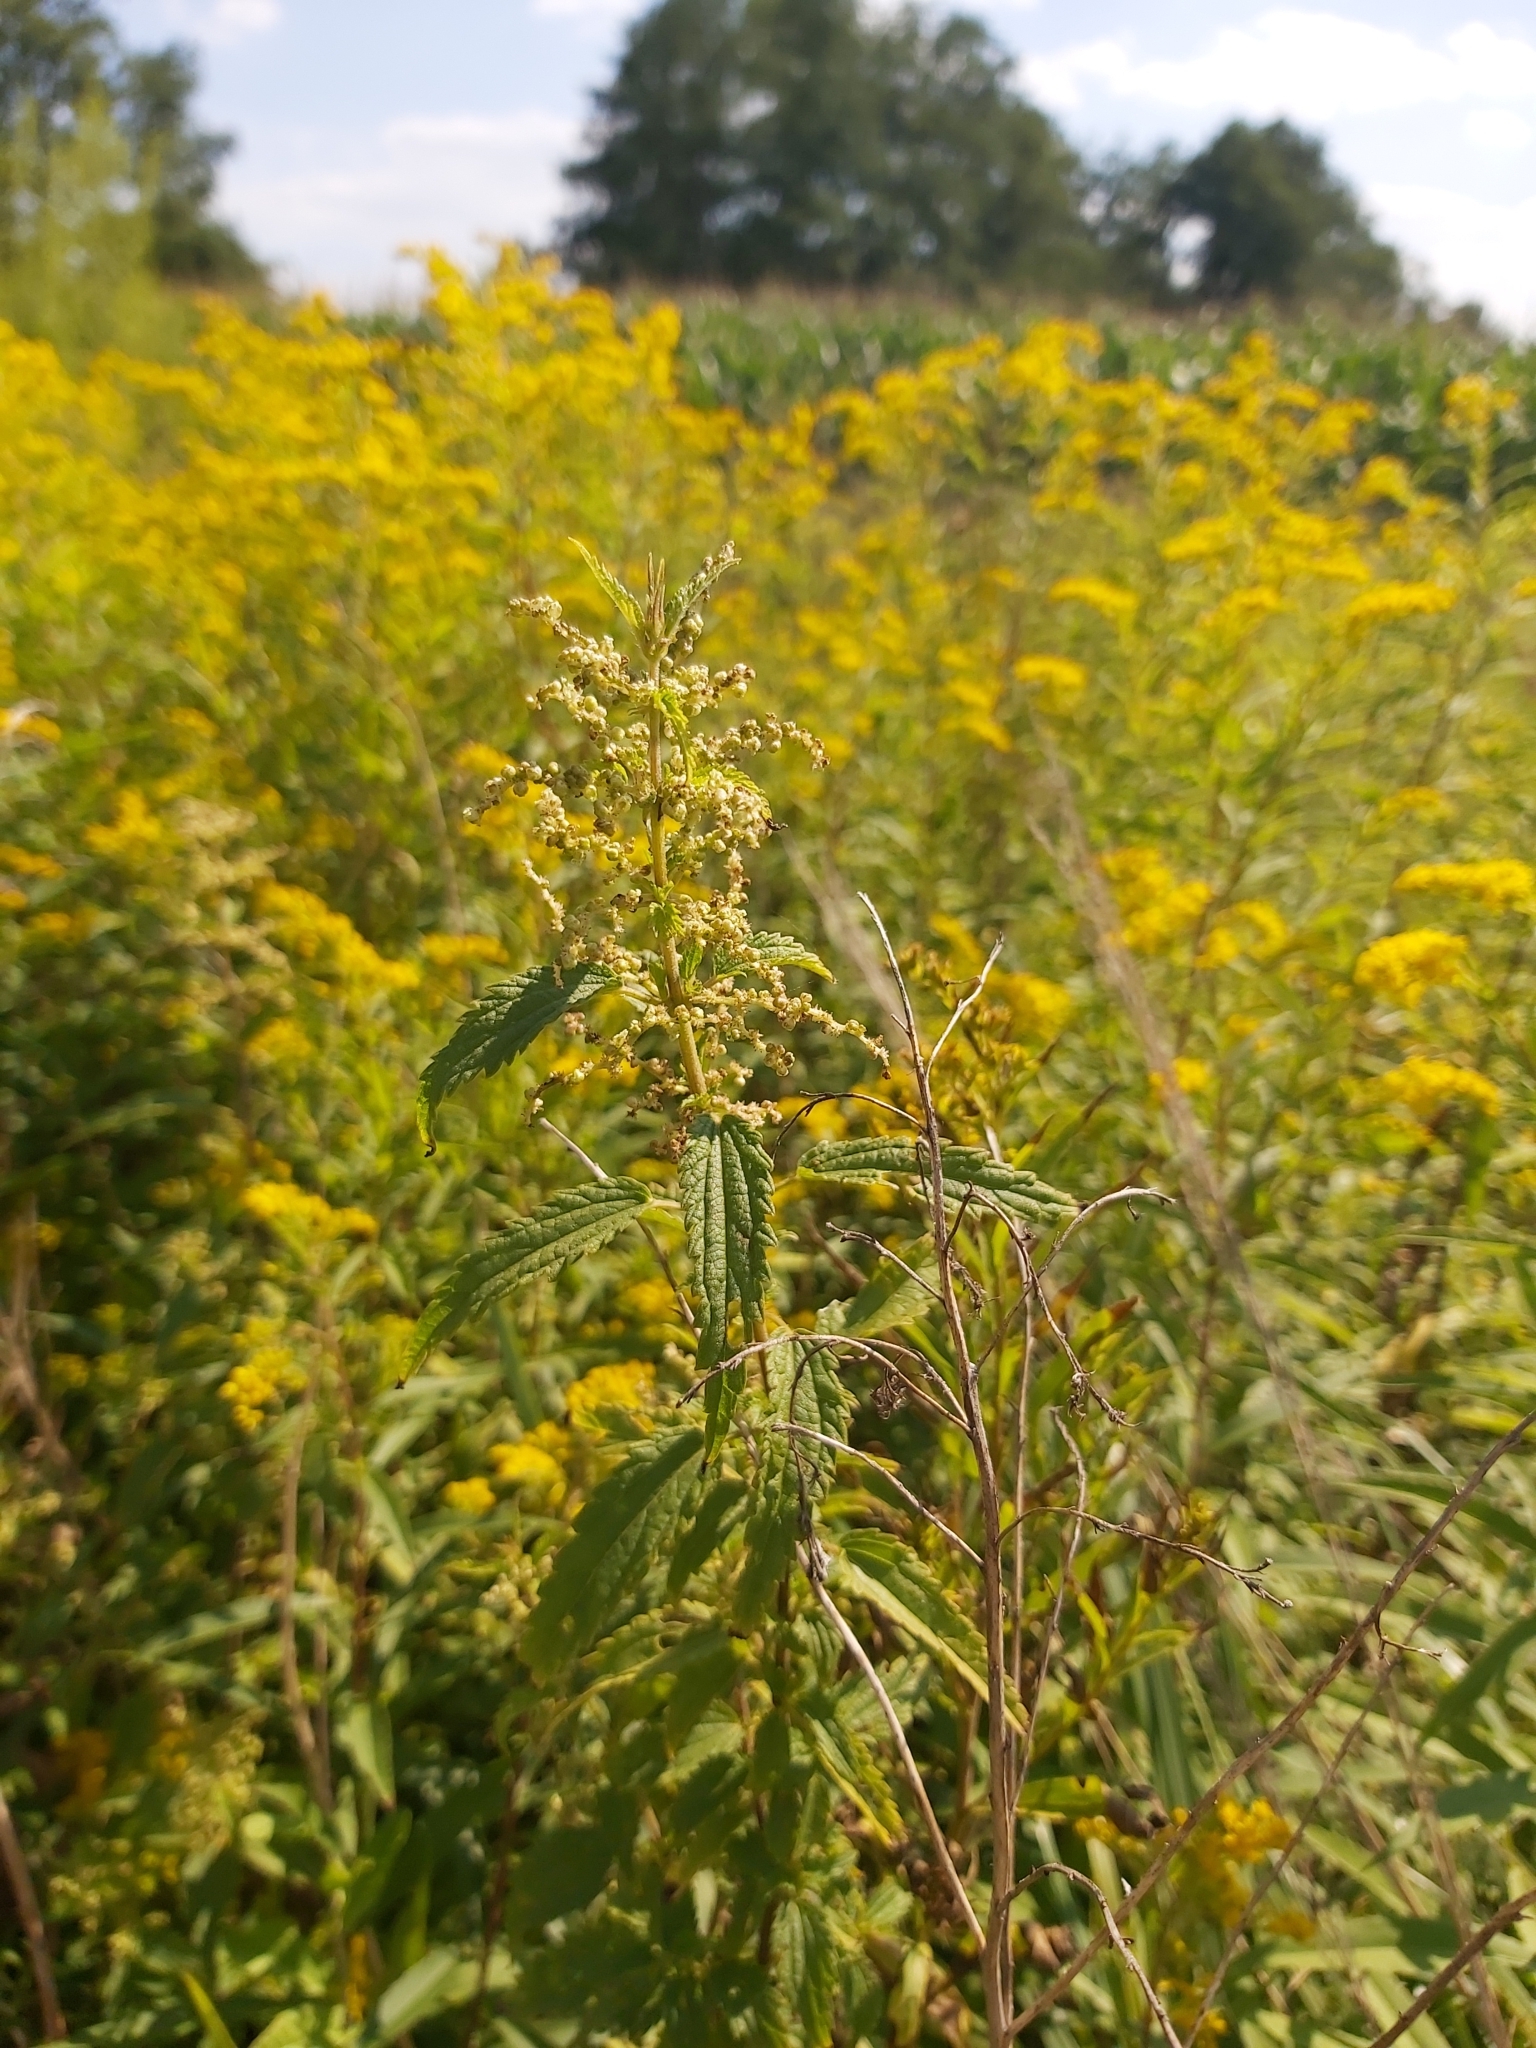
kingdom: Plantae
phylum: Tracheophyta
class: Magnoliopsida
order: Rosales
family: Urticaceae
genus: Urtica
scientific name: Urtica dioica
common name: Common nettle
